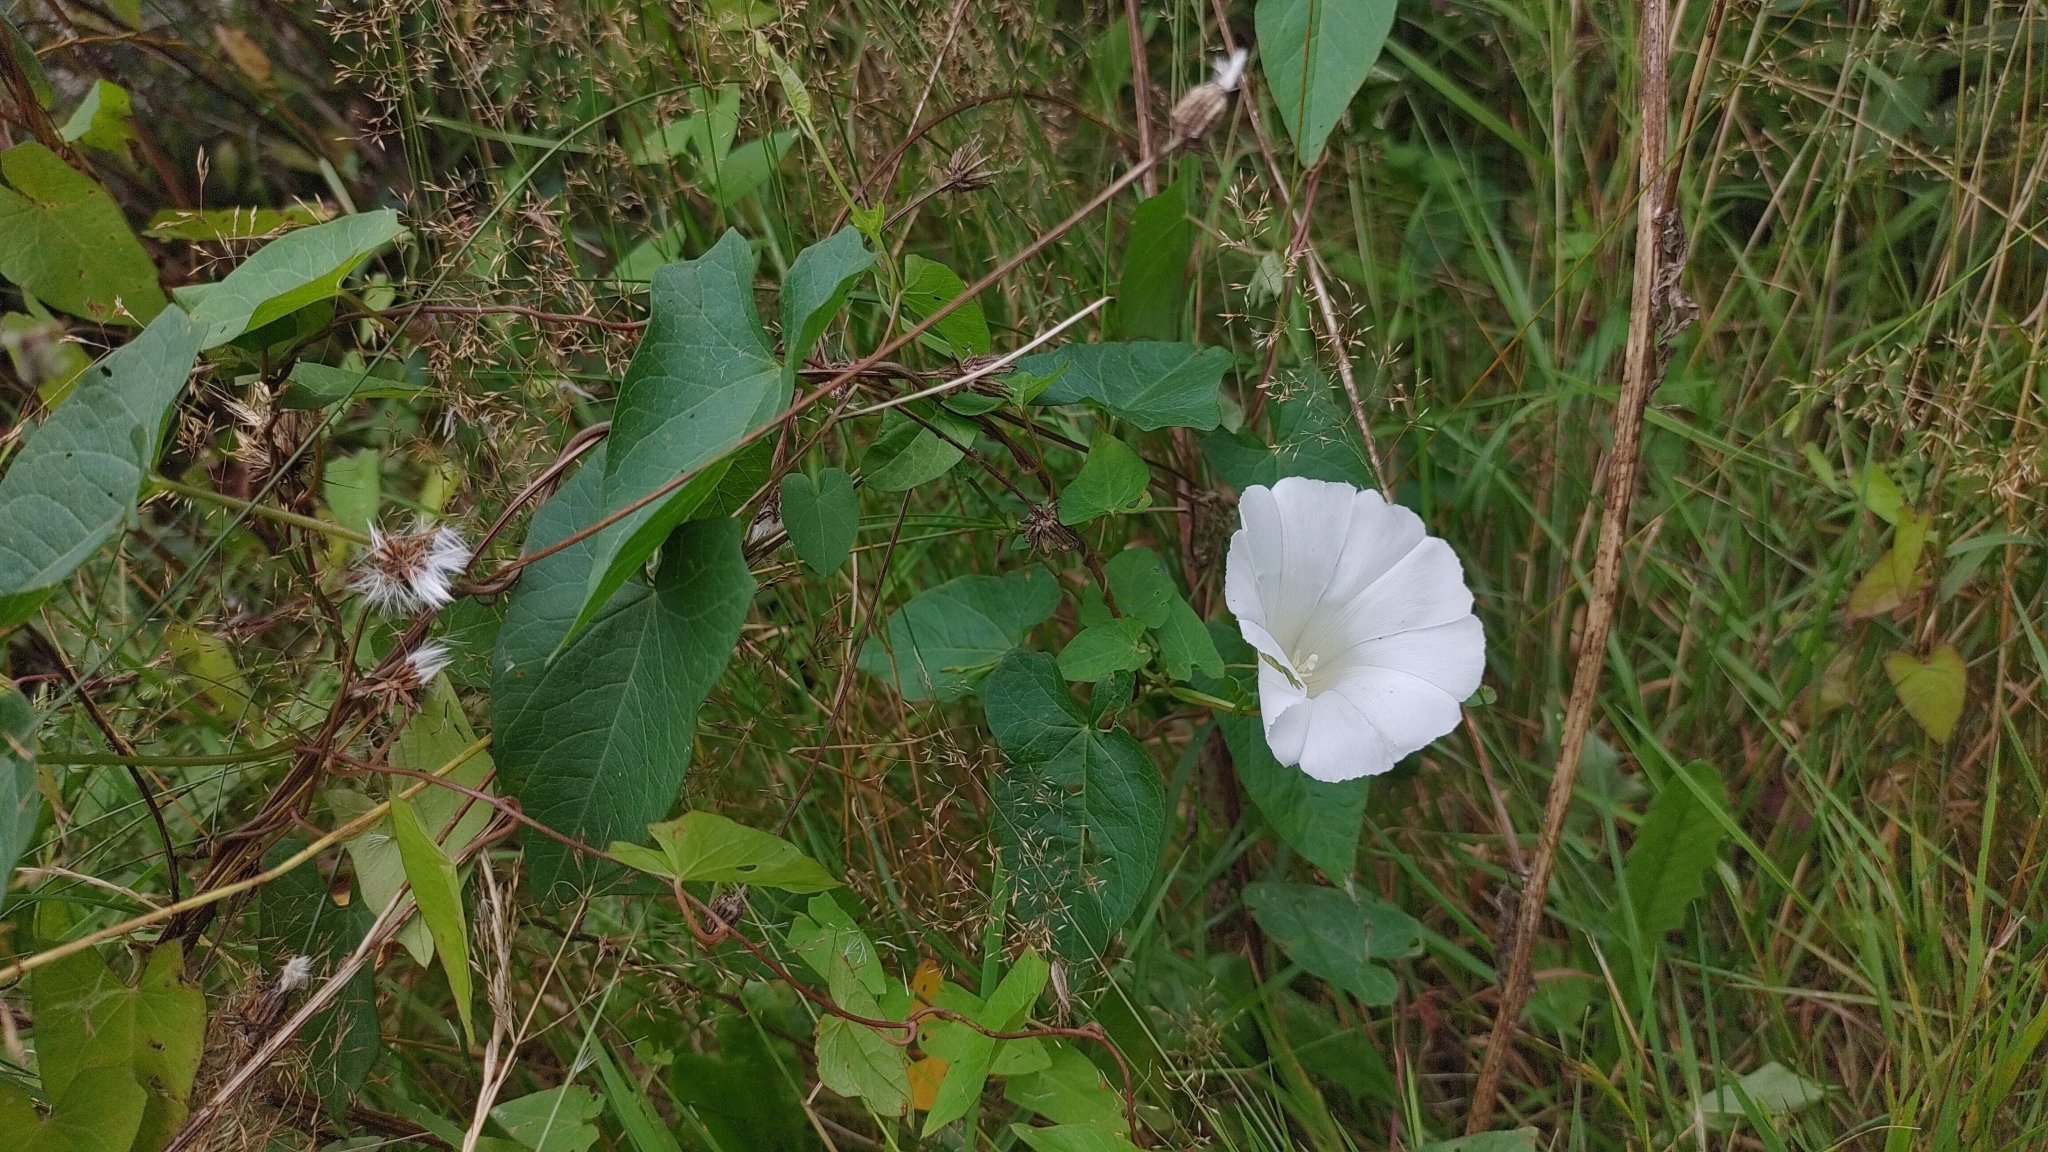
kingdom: Plantae
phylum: Tracheophyta
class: Magnoliopsida
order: Solanales
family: Convolvulaceae
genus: Calystegia
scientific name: Calystegia sepium
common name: Hedge bindweed
